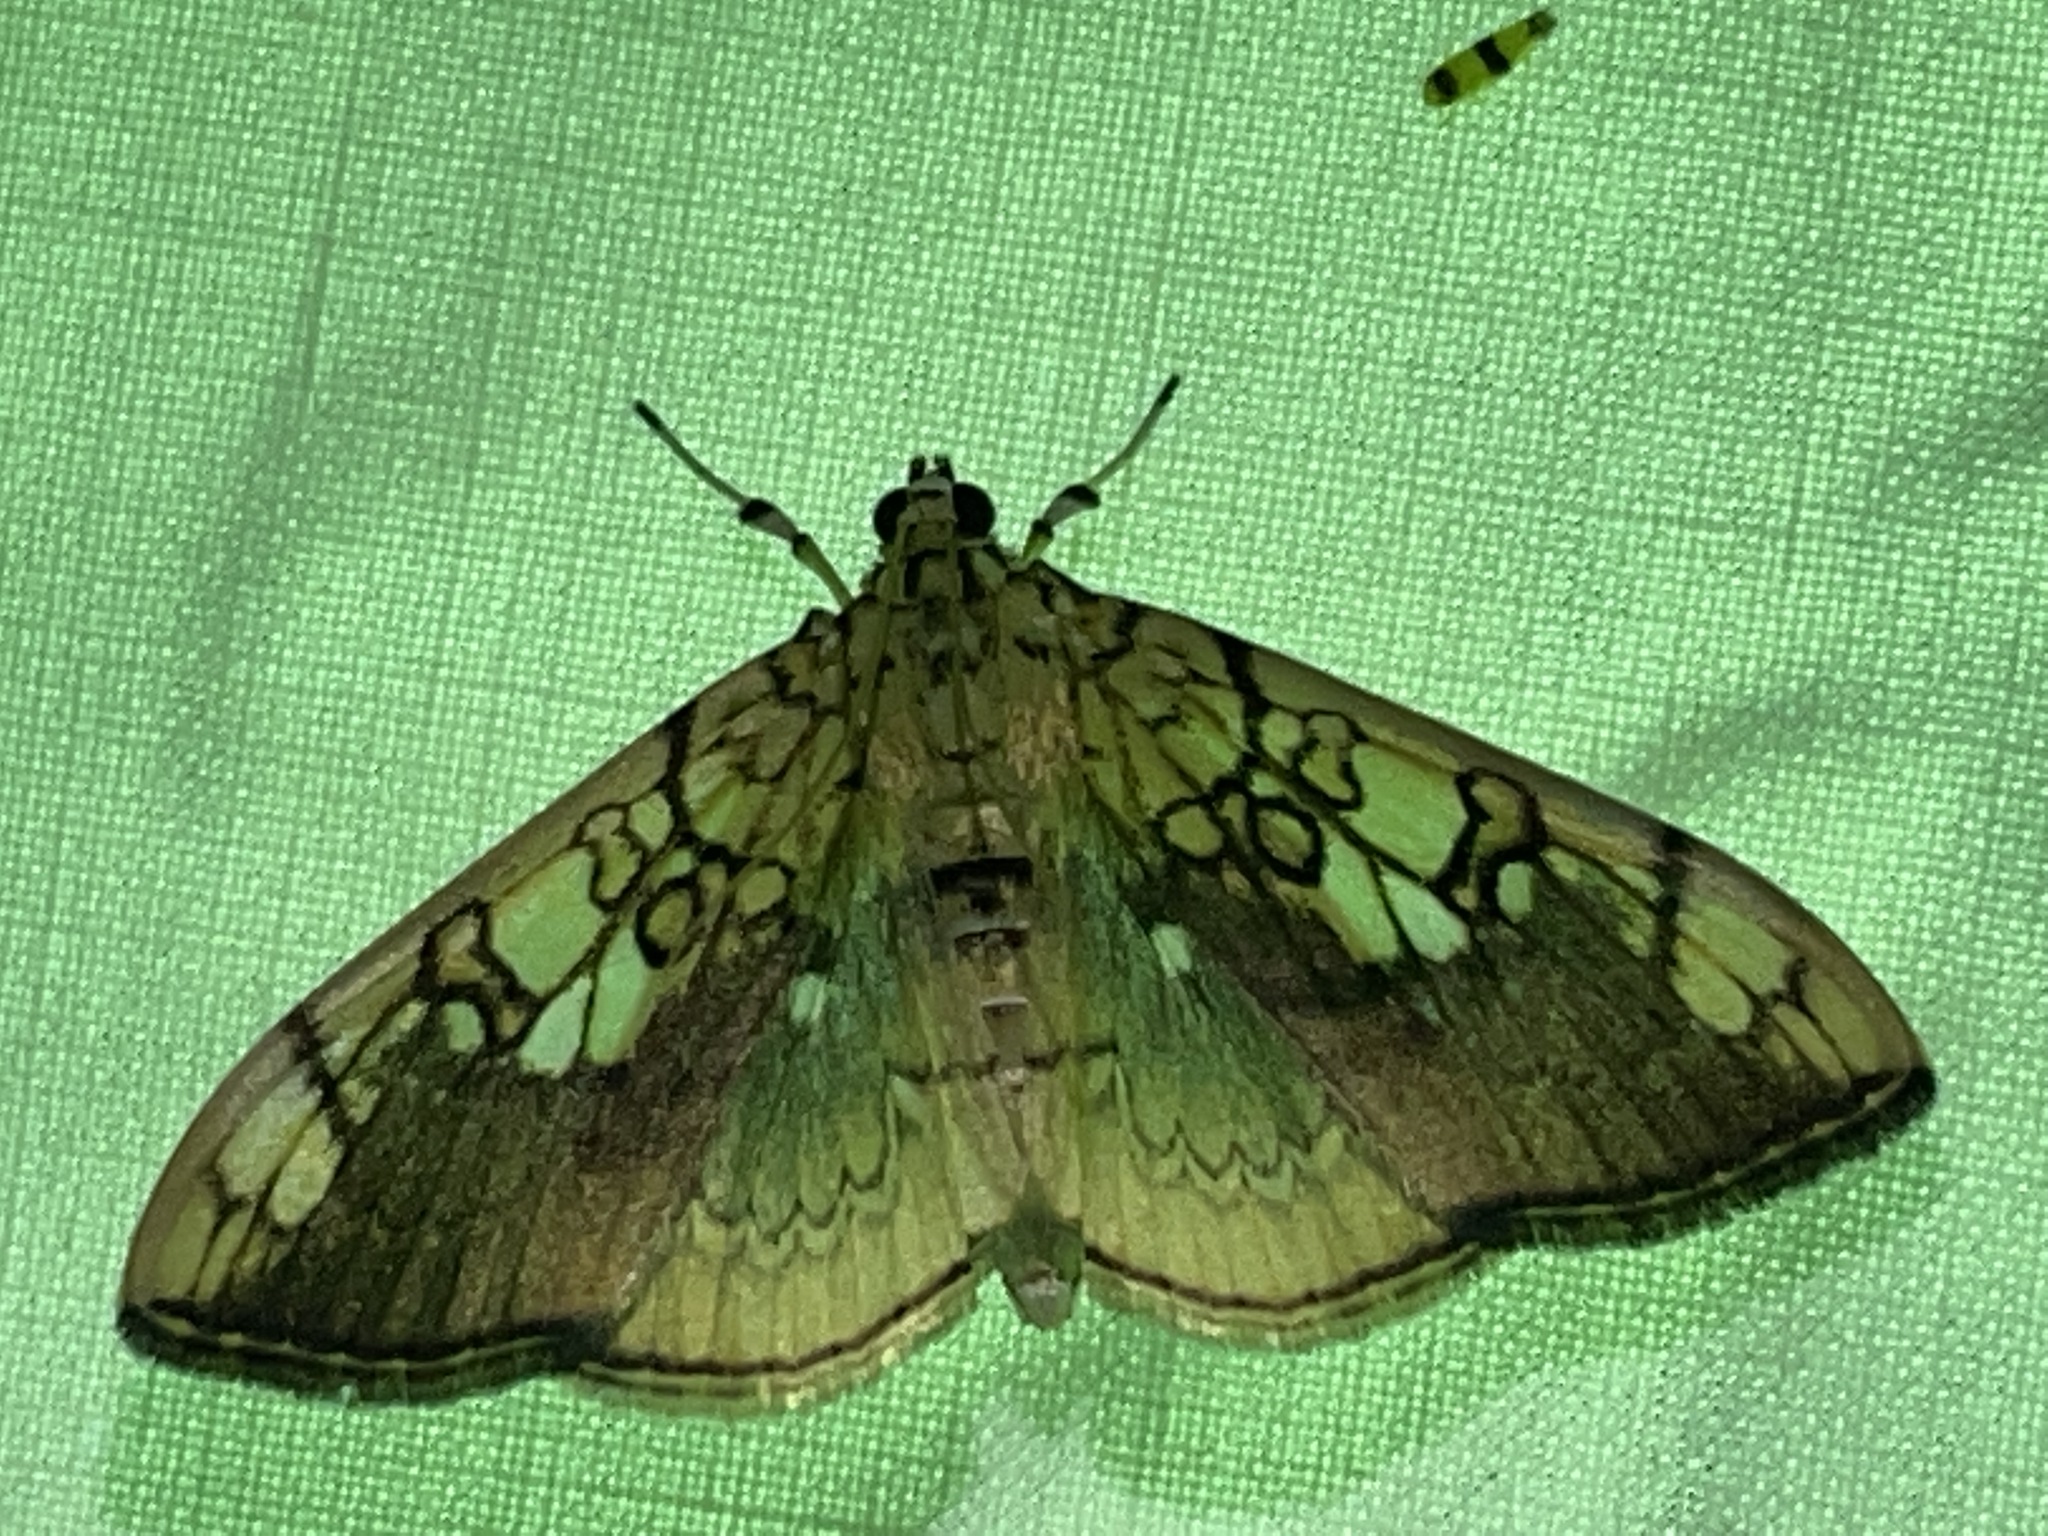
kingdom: Animalia
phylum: Arthropoda
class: Insecta
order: Lepidoptera
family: Crambidae
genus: Pantographa
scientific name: Pantographa limata
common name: Basswood leafroller moth
